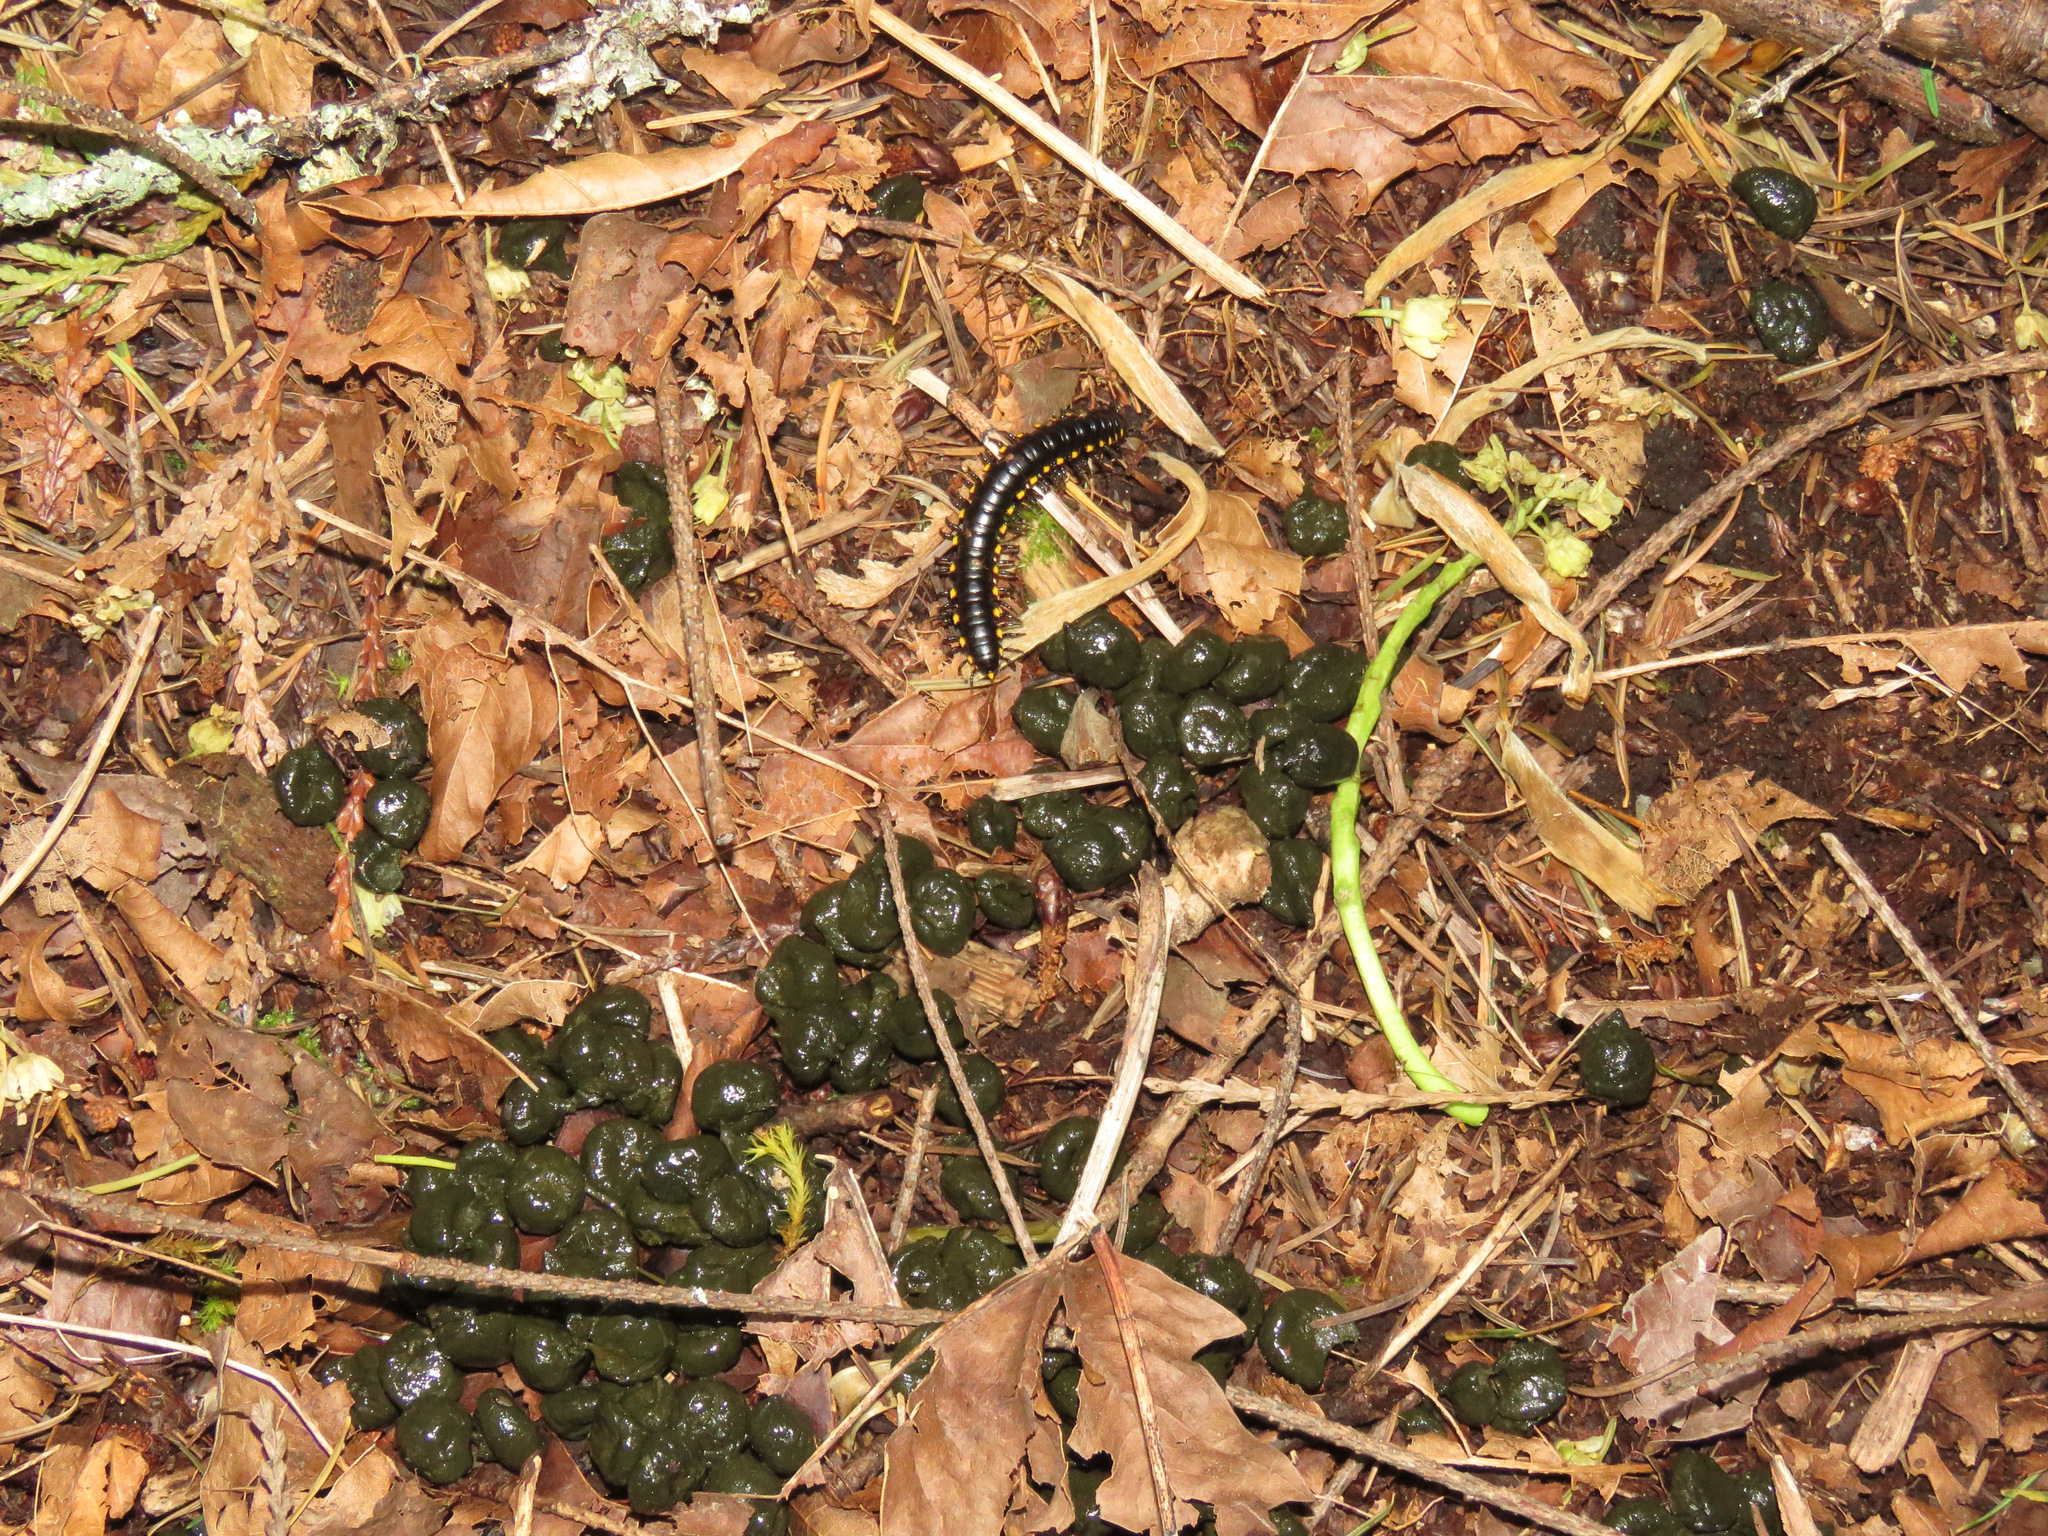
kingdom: Animalia
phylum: Arthropoda
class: Diplopoda
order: Polydesmida
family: Xystodesmidae
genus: Harpaphe
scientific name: Harpaphe haydeniana
